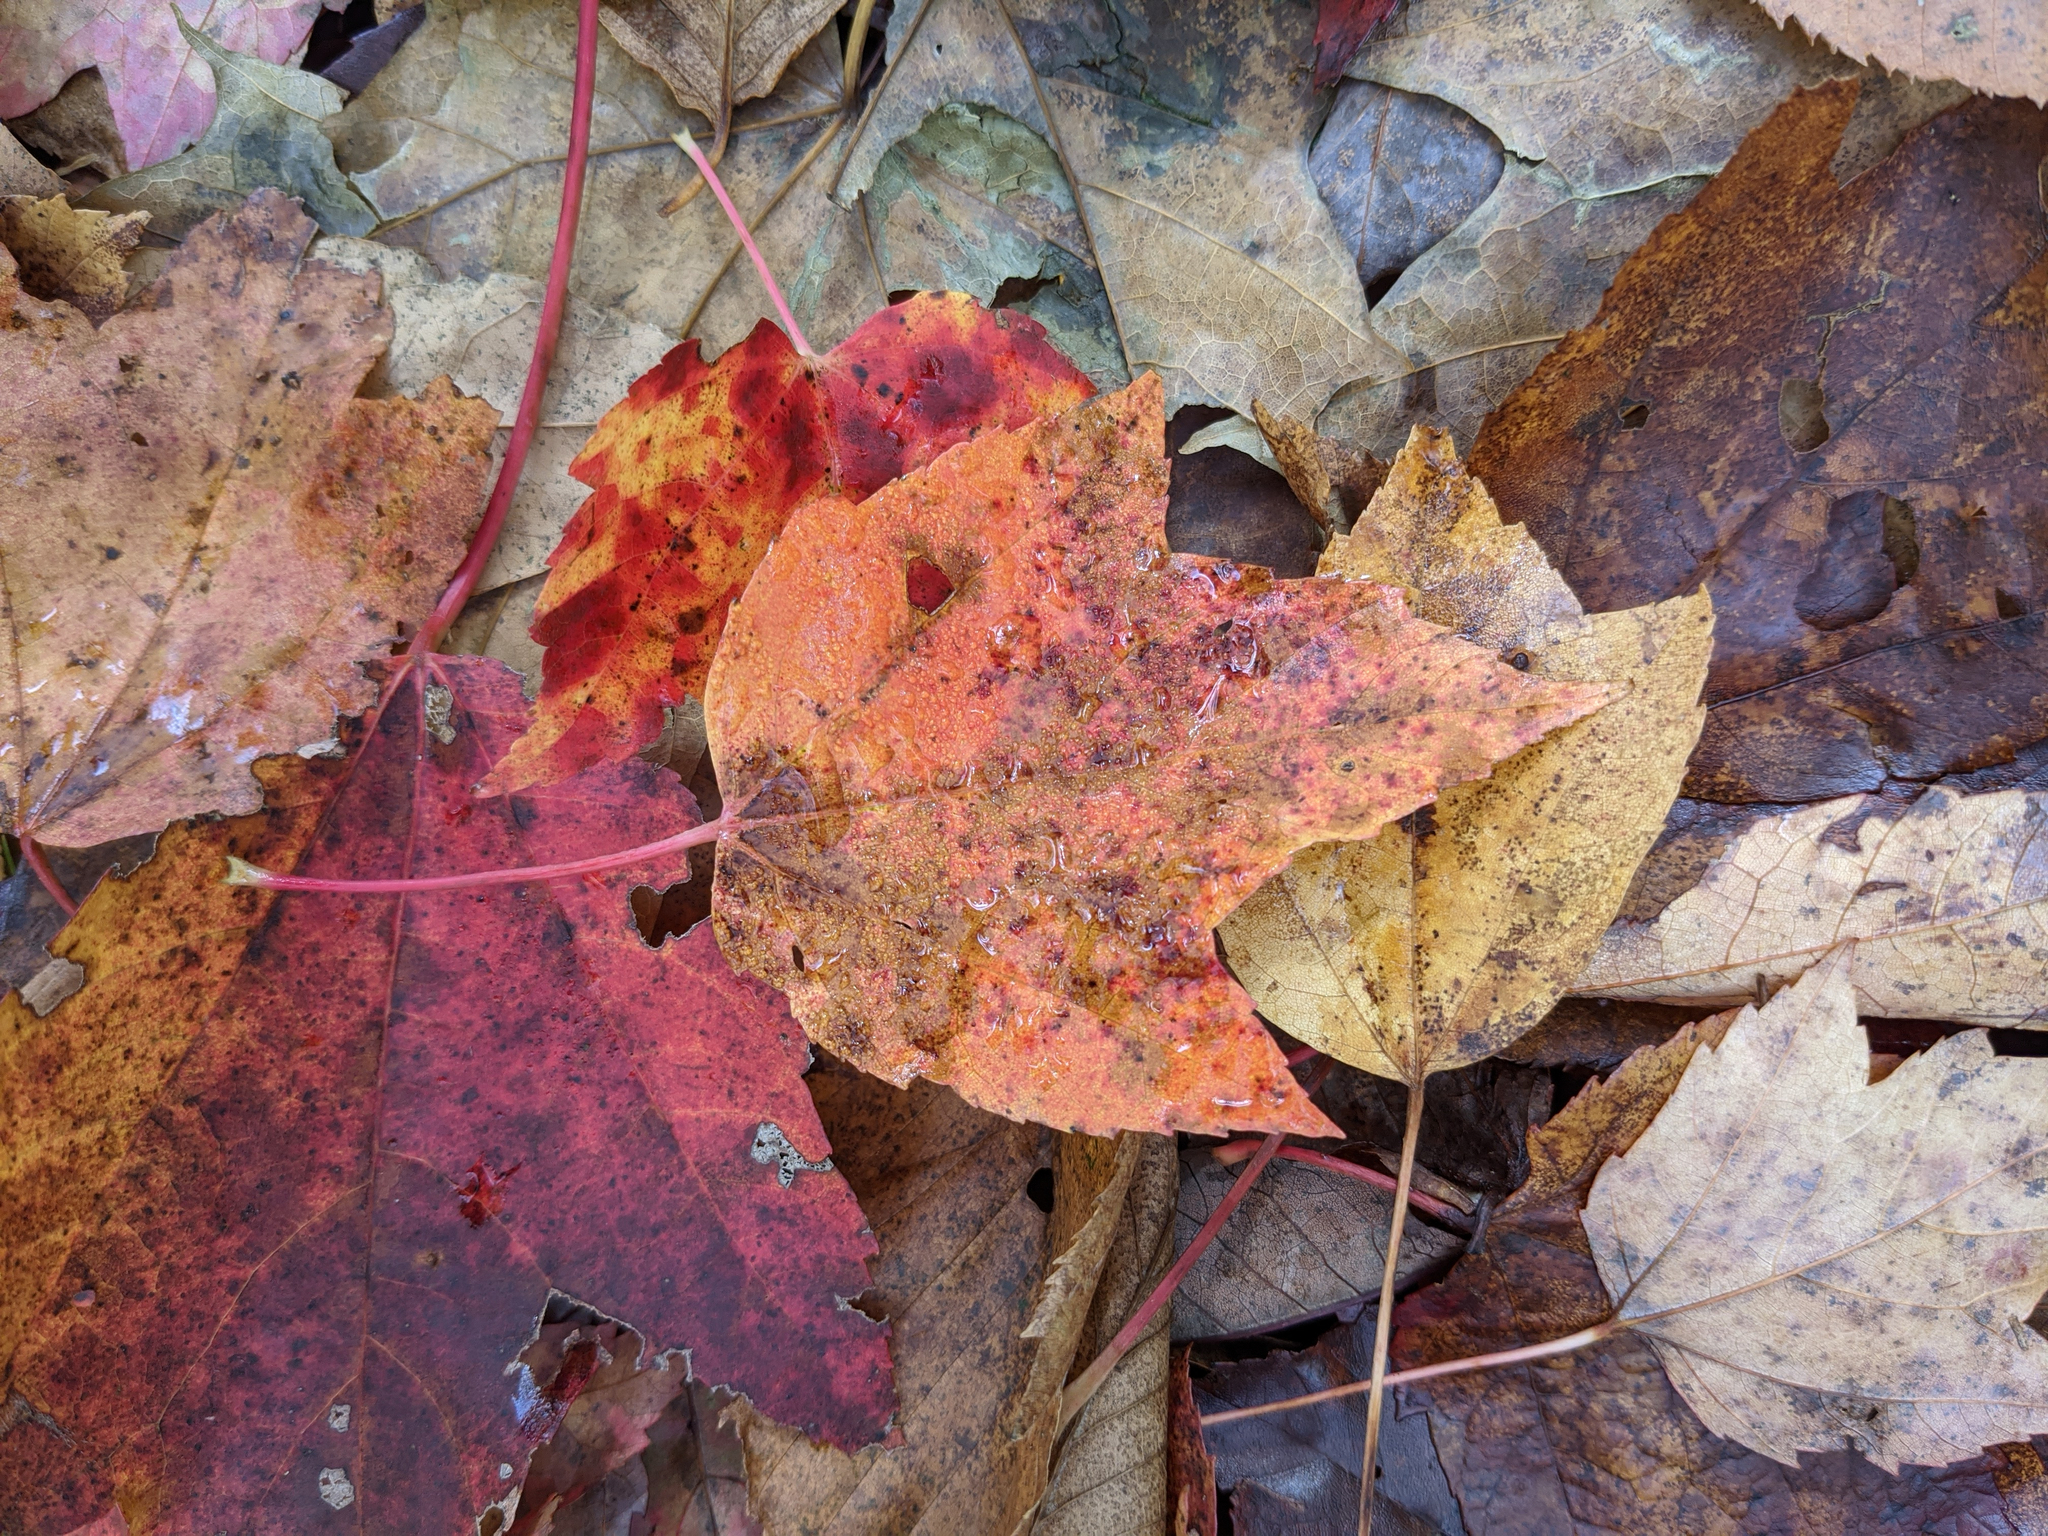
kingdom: Plantae
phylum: Tracheophyta
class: Magnoliopsida
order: Sapindales
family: Sapindaceae
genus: Acer
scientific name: Acer rubrum
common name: Red maple
